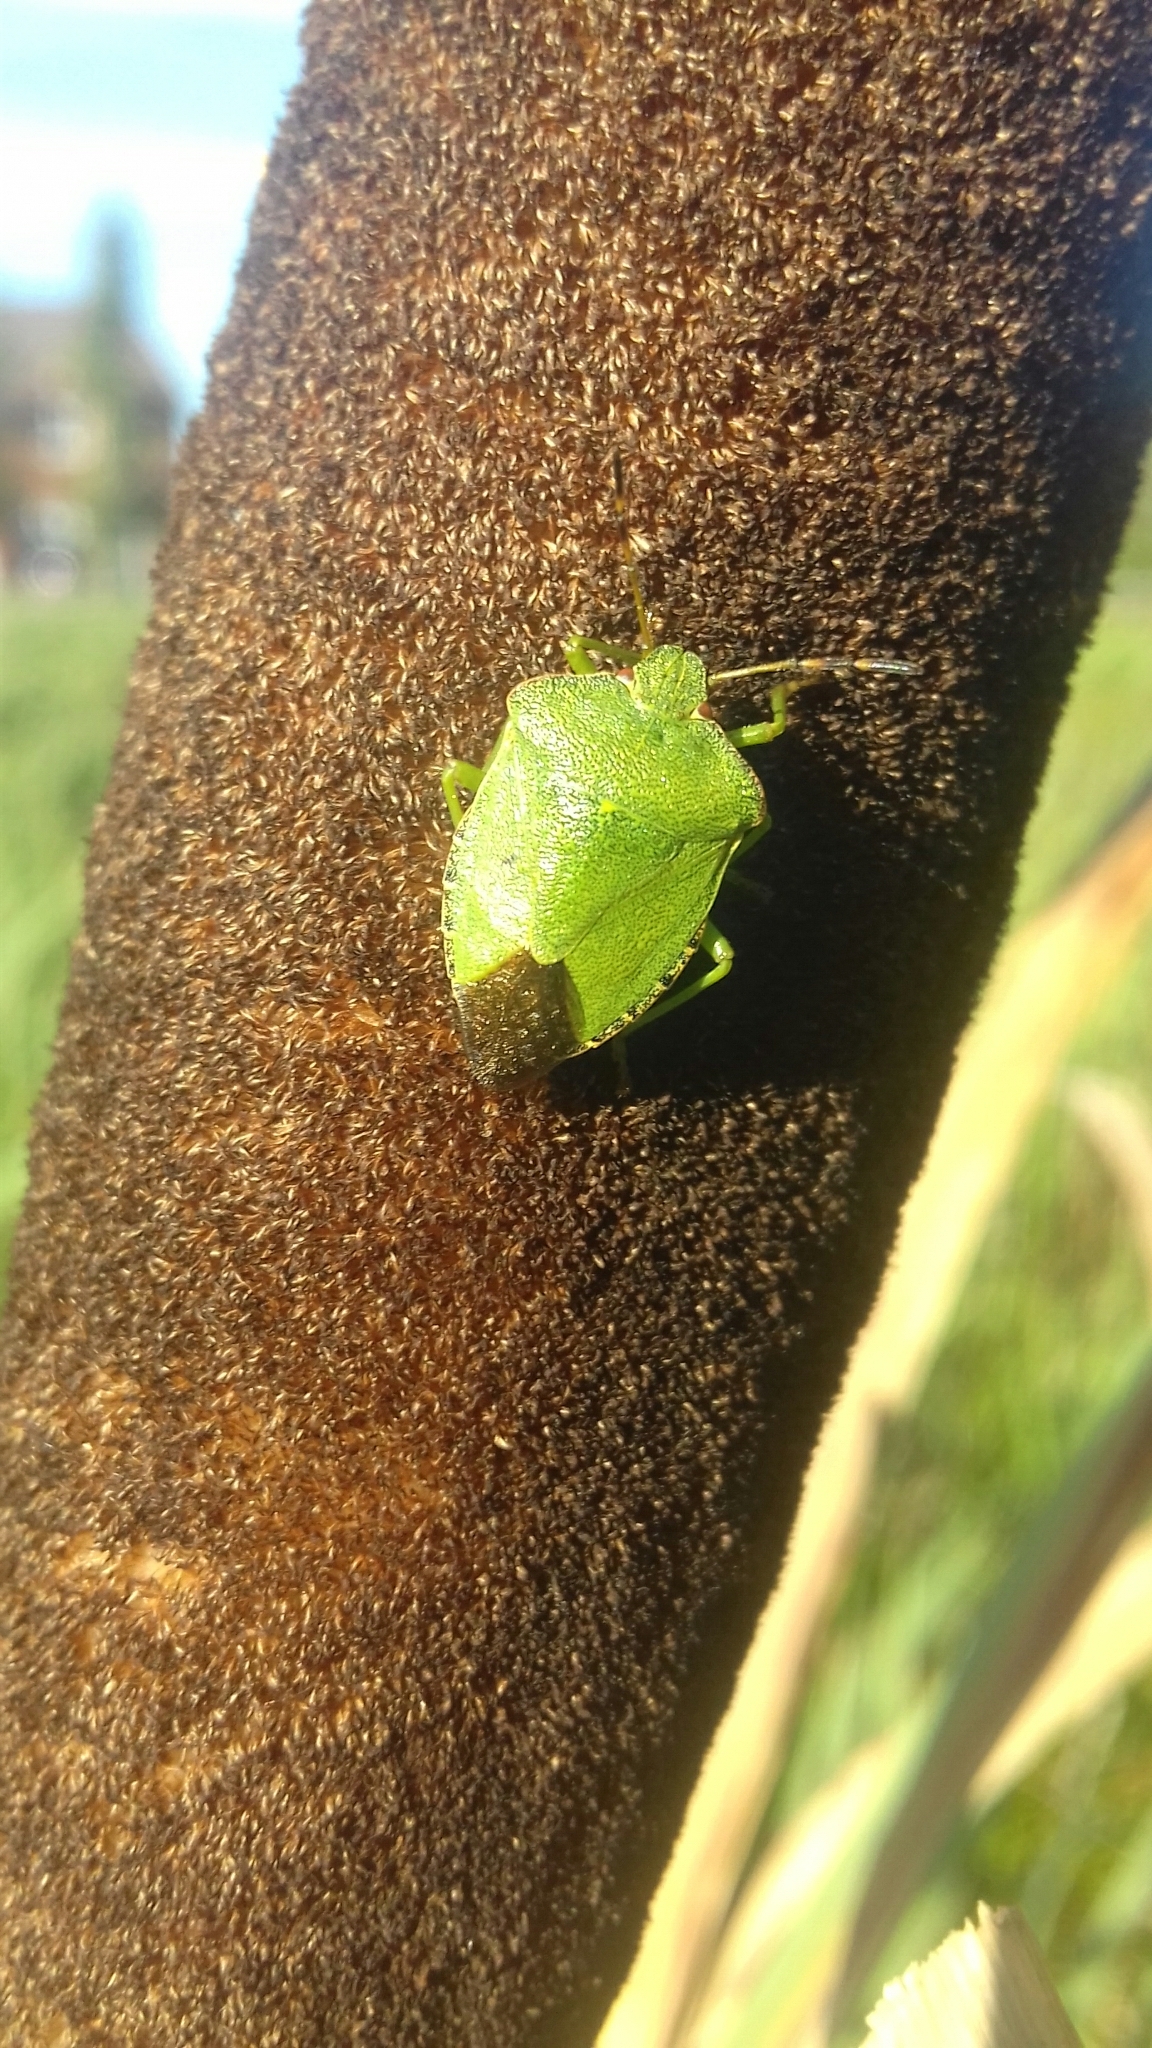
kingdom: Animalia
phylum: Arthropoda
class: Insecta
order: Hemiptera
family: Pentatomidae
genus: Palomena
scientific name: Palomena prasina
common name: Green shieldbug
